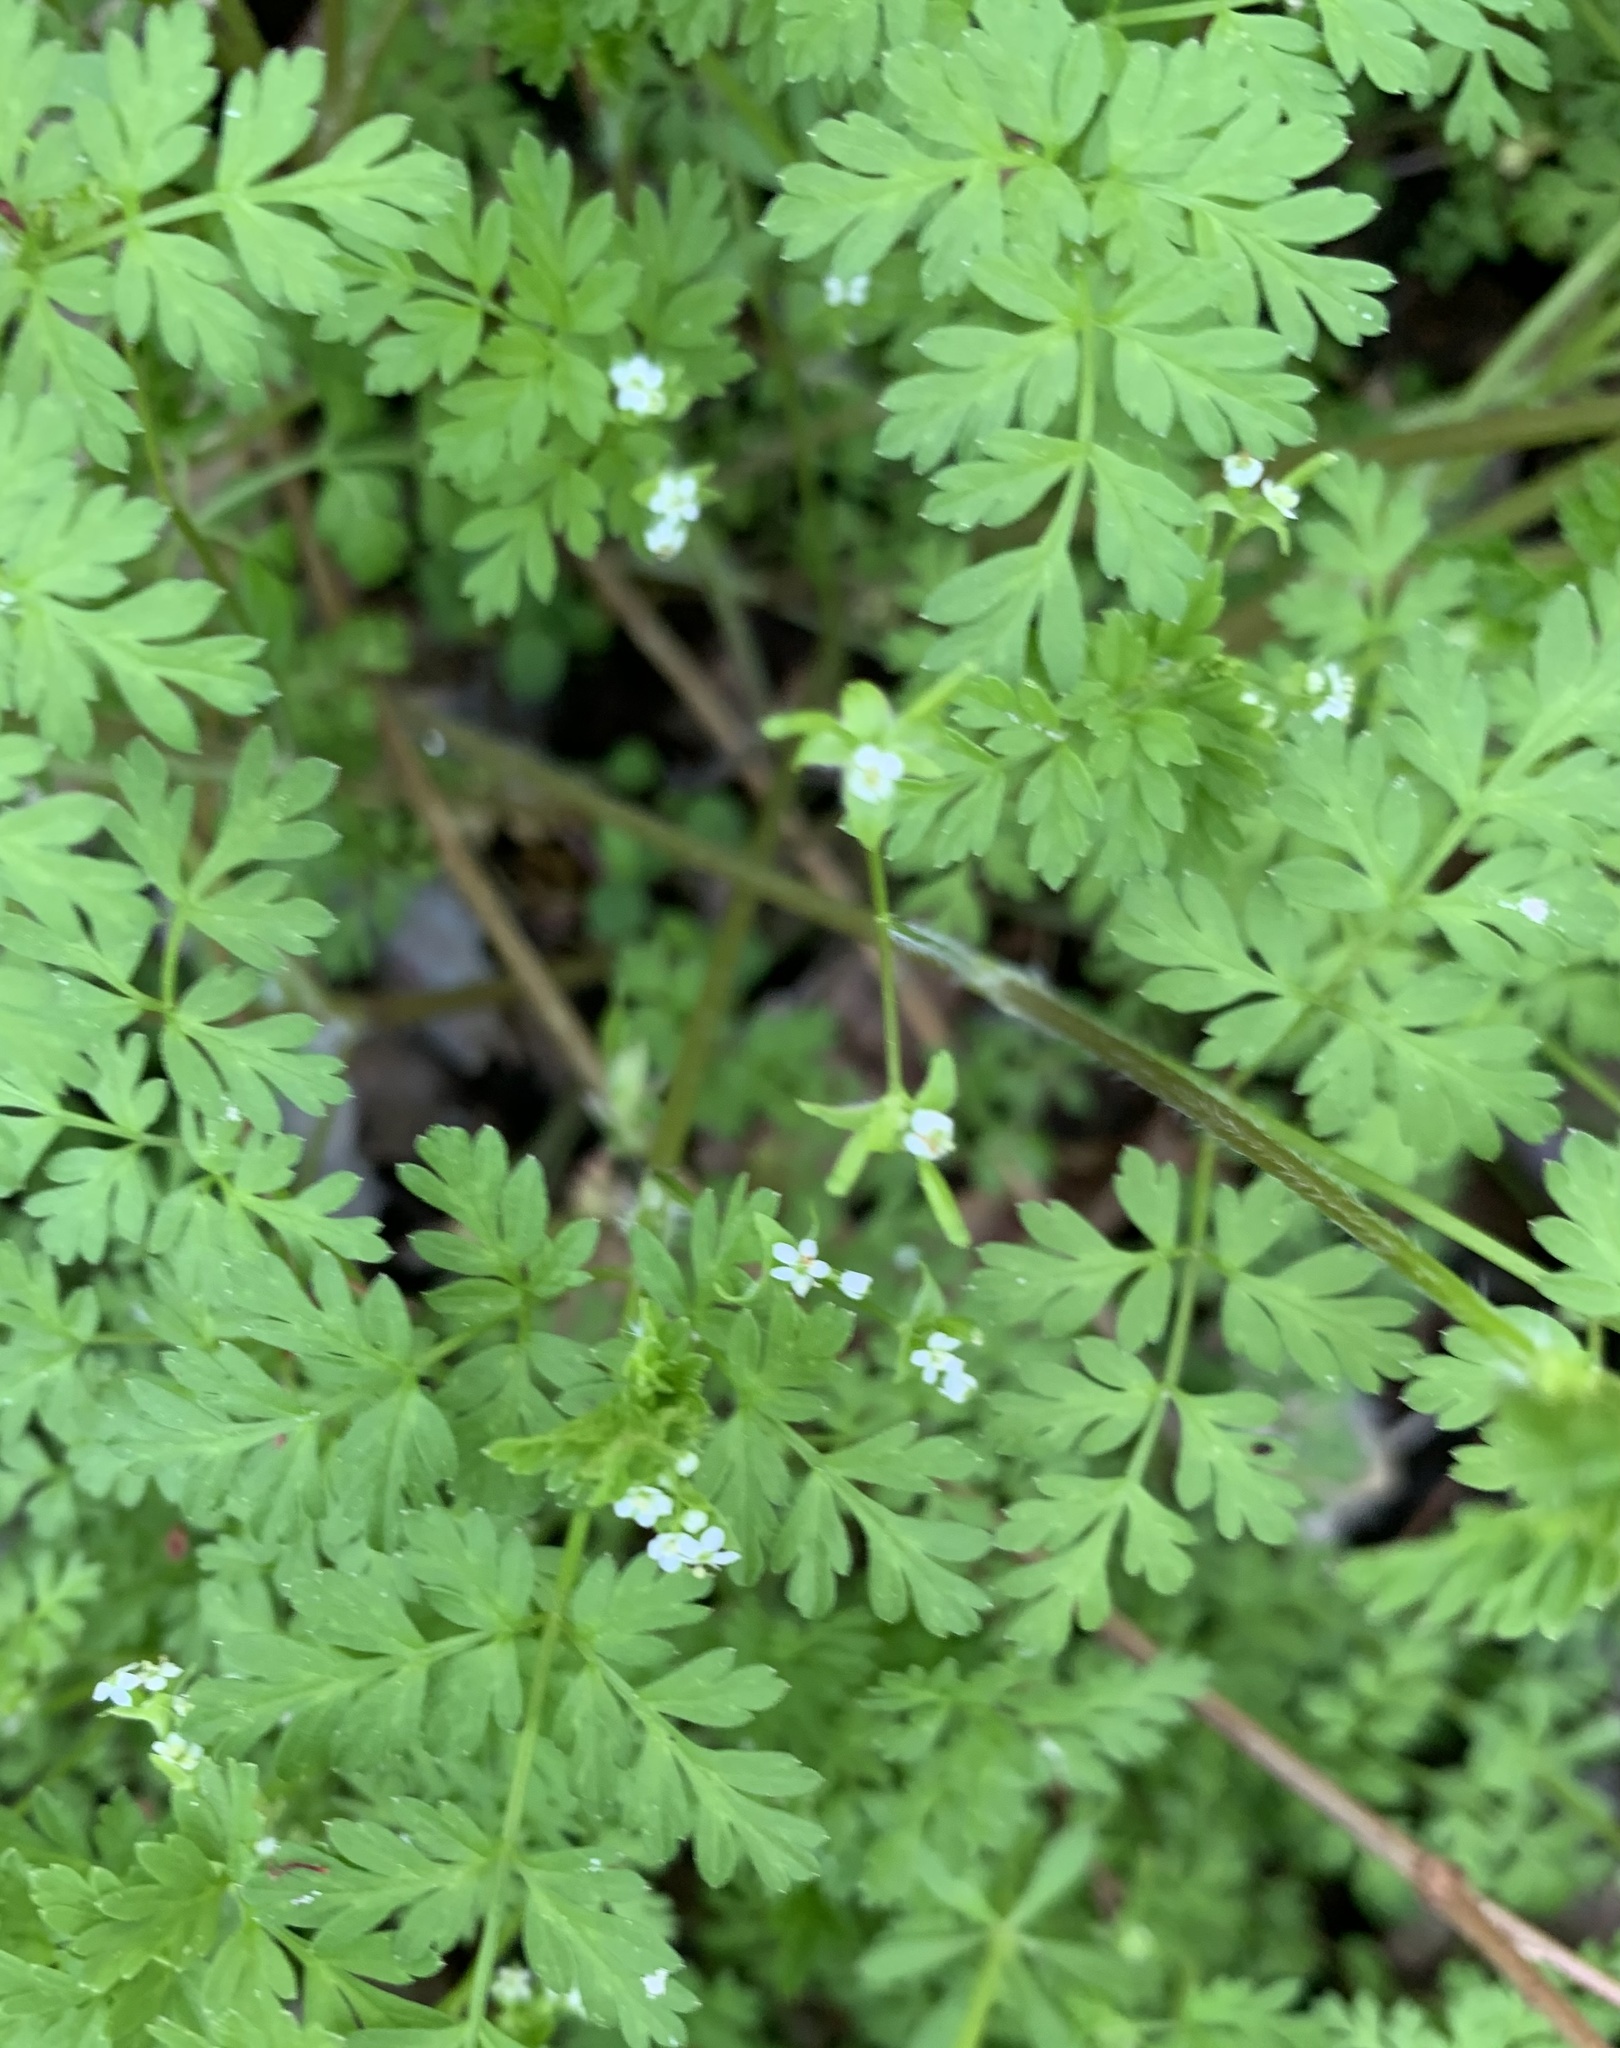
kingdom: Plantae
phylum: Tracheophyta
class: Magnoliopsida
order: Apiales
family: Apiaceae
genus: Chaerophyllum
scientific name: Chaerophyllum tainturieri
